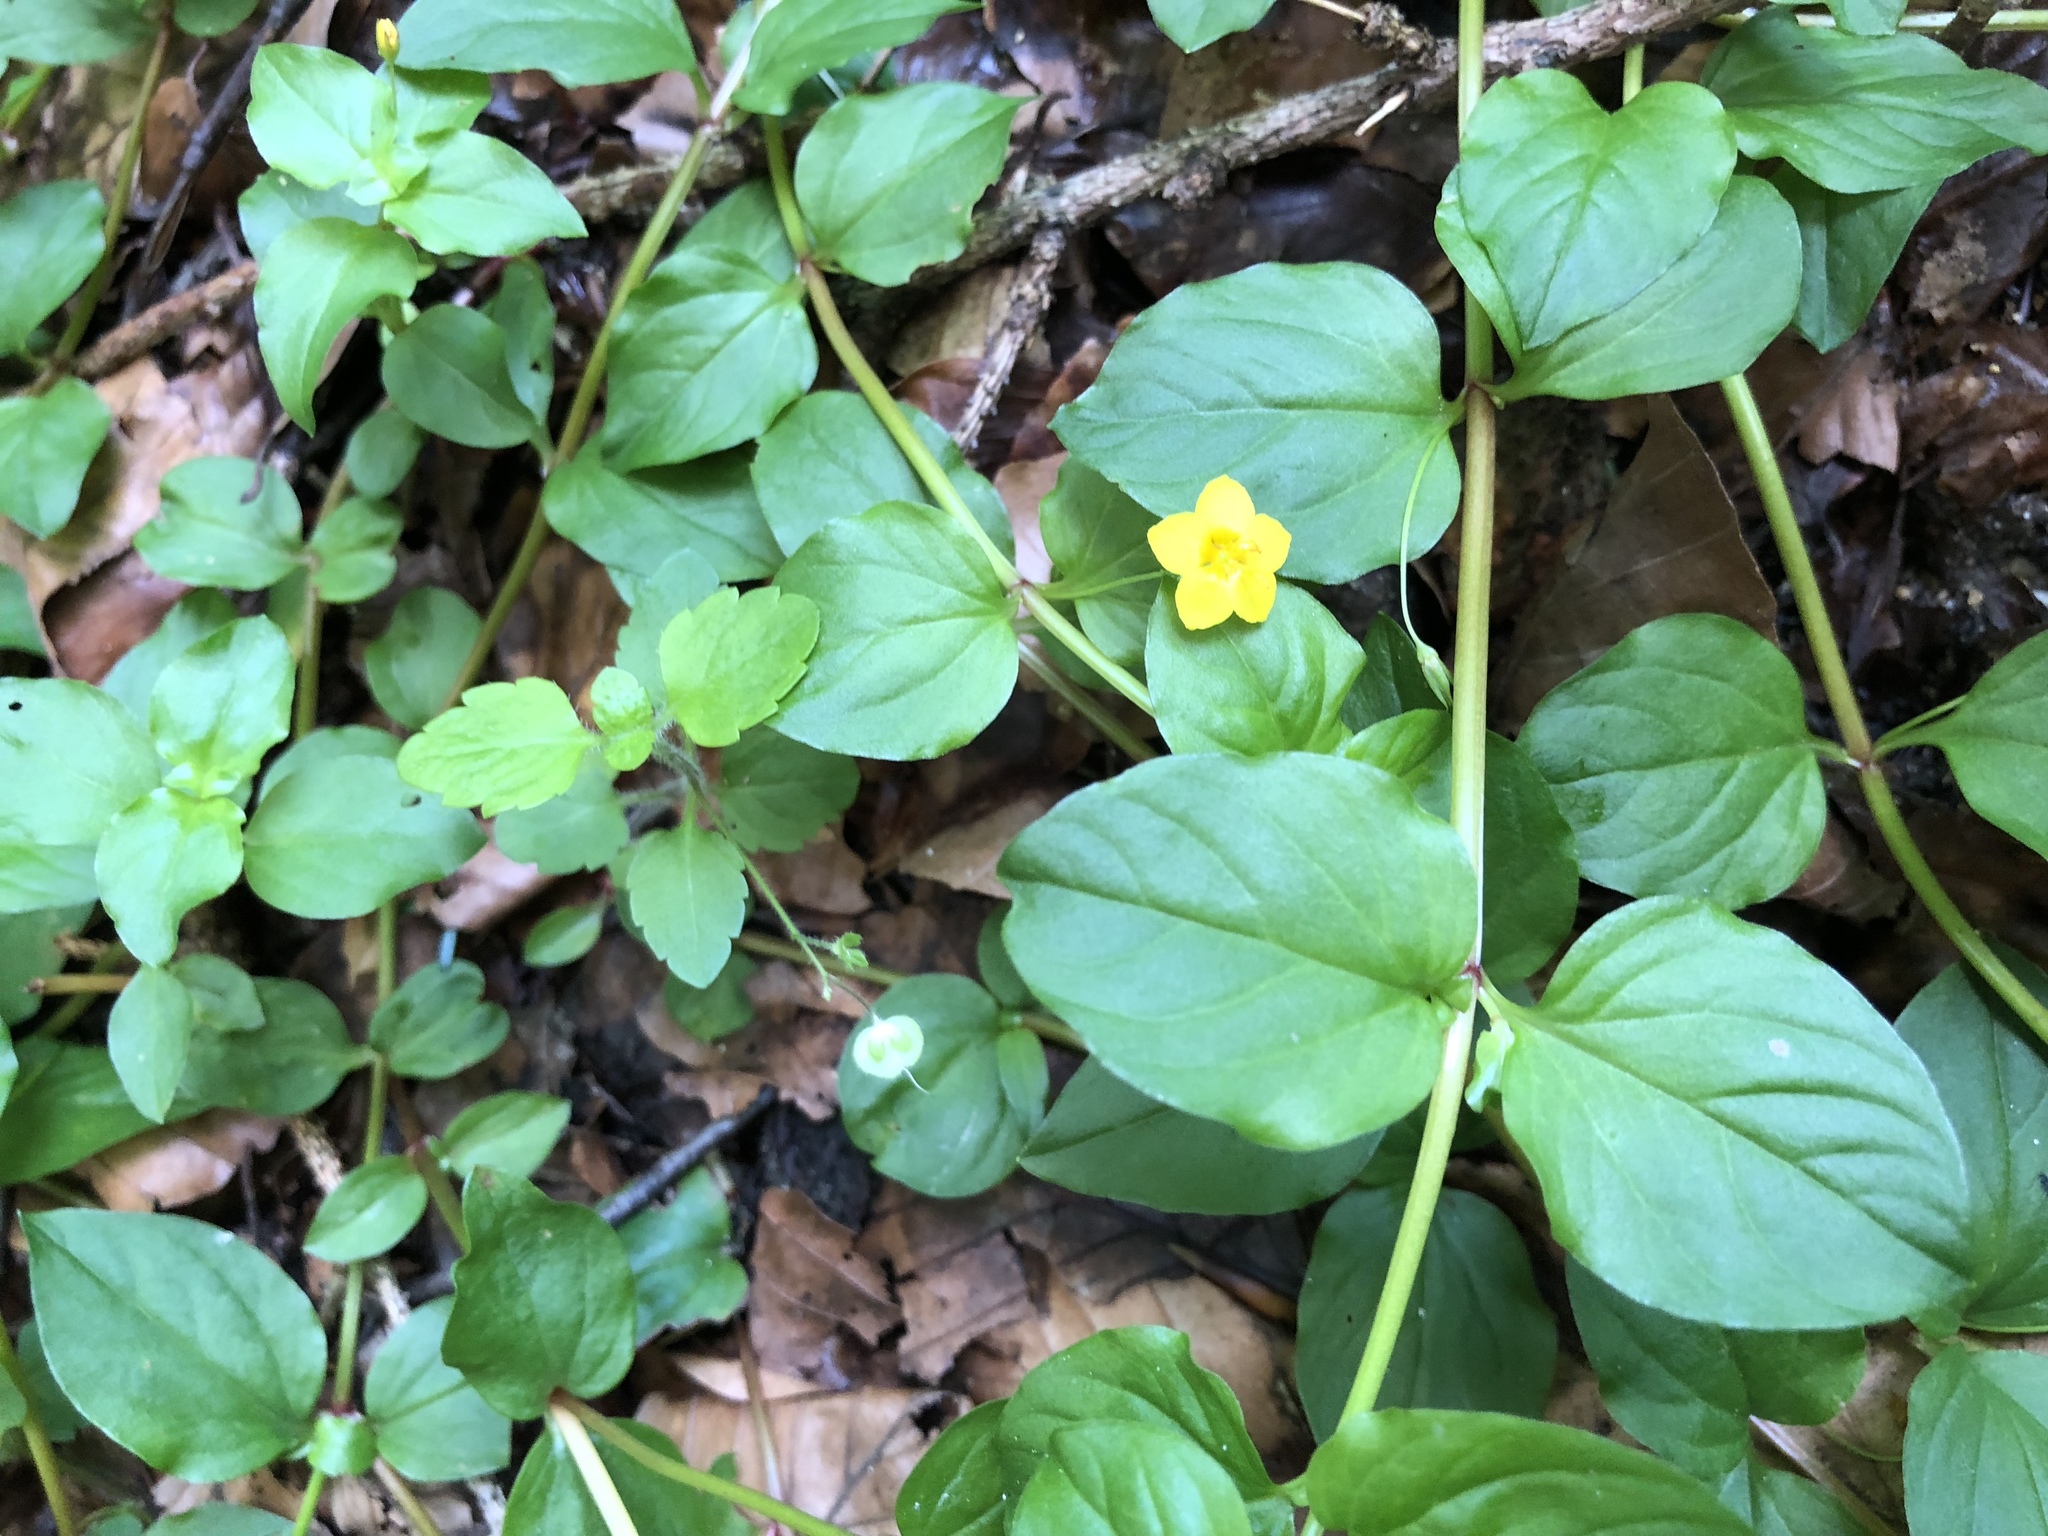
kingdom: Plantae
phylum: Tracheophyta
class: Magnoliopsida
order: Ericales
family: Primulaceae
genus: Lysimachia
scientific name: Lysimachia nemorum
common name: Yellow pimpernel
